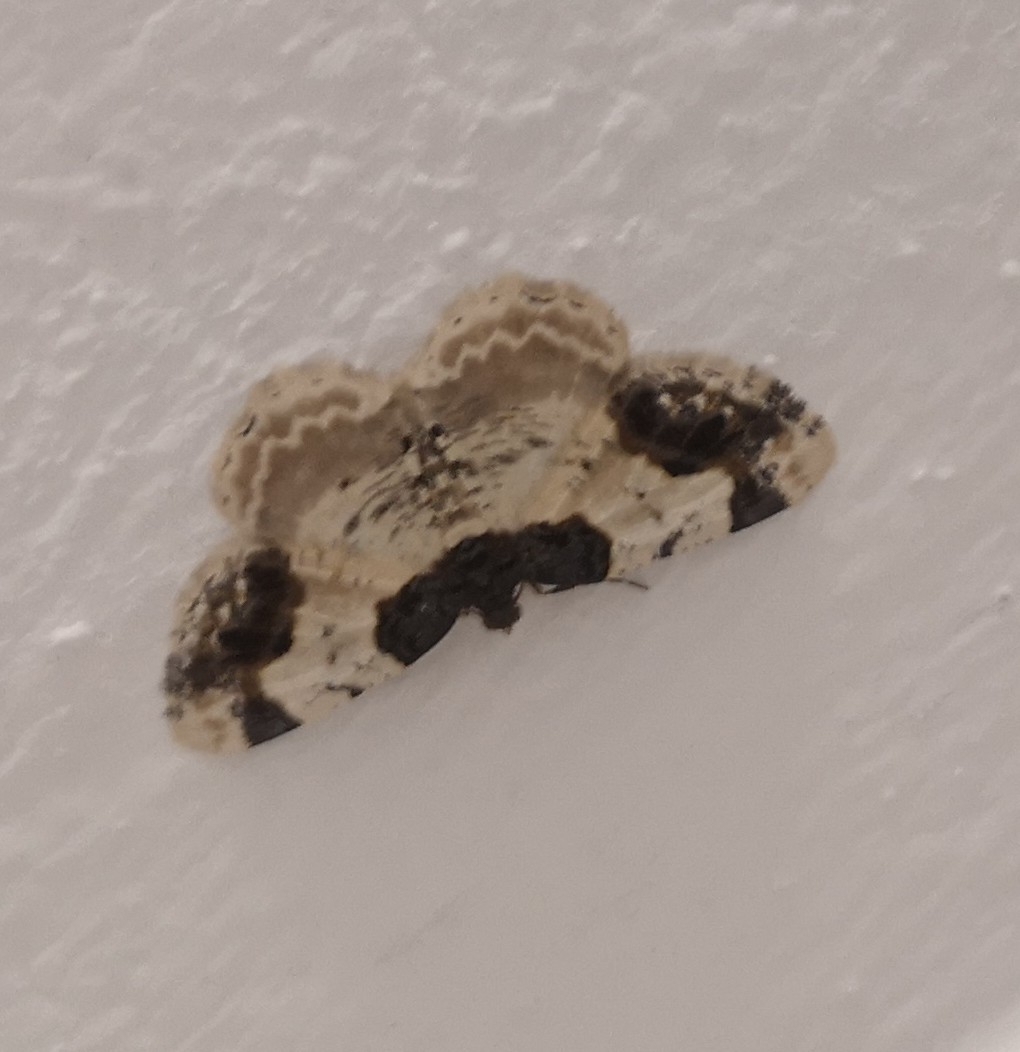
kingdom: Animalia
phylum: Arthropoda
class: Insecta
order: Lepidoptera
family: Geometridae
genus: Ligdia
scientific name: Ligdia adustata
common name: Scorched carpet
